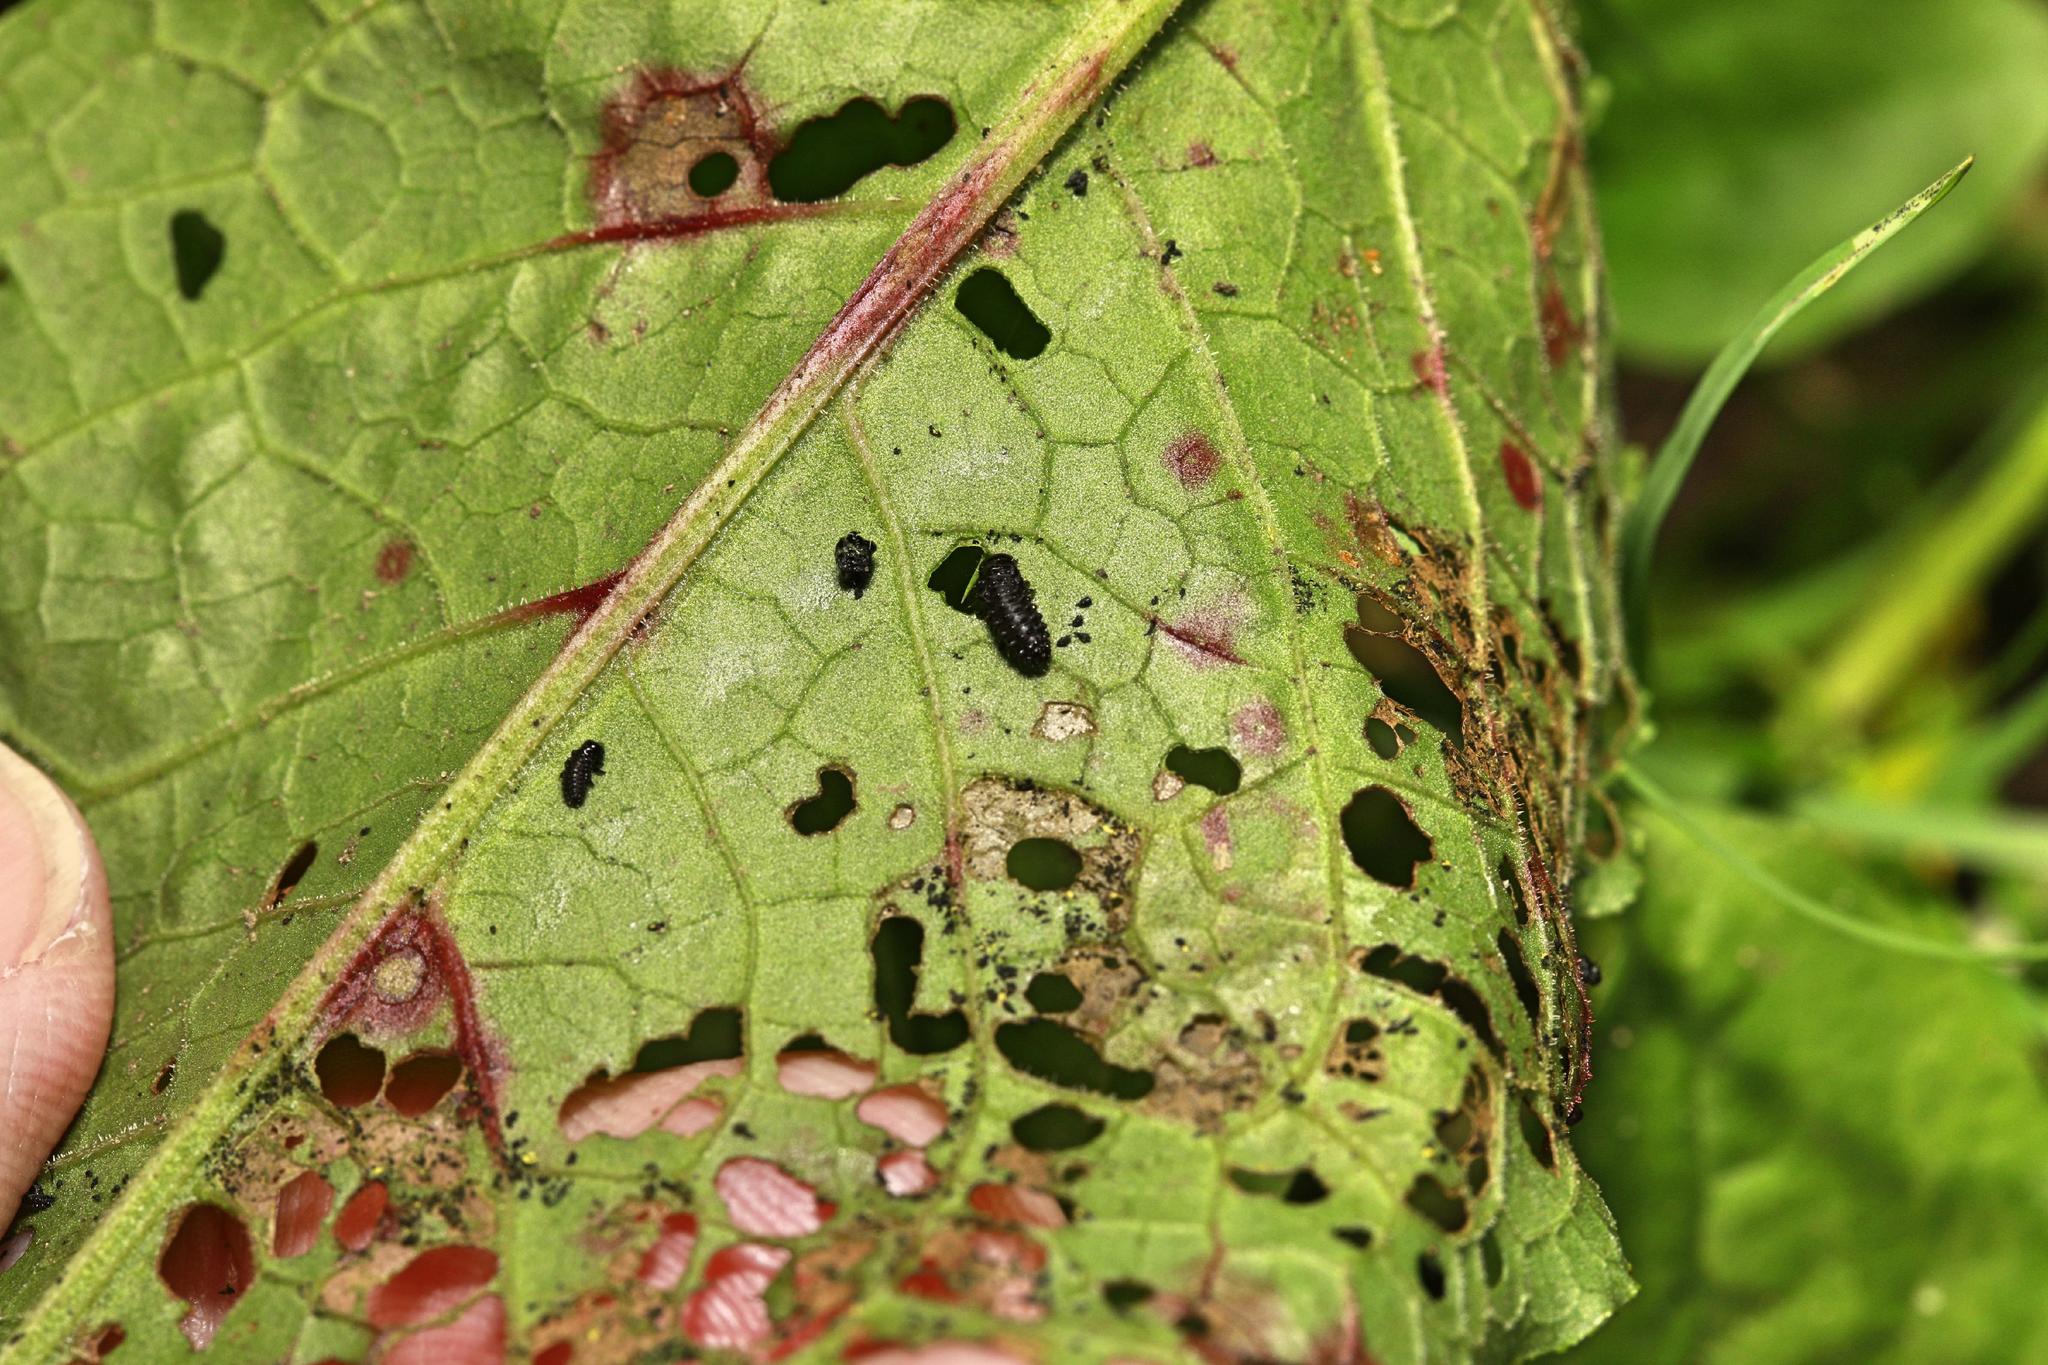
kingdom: Animalia
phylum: Arthropoda
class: Insecta
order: Coleoptera
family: Chrysomelidae
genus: Gastrophysa
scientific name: Gastrophysa viridula
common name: Green dock beetle
